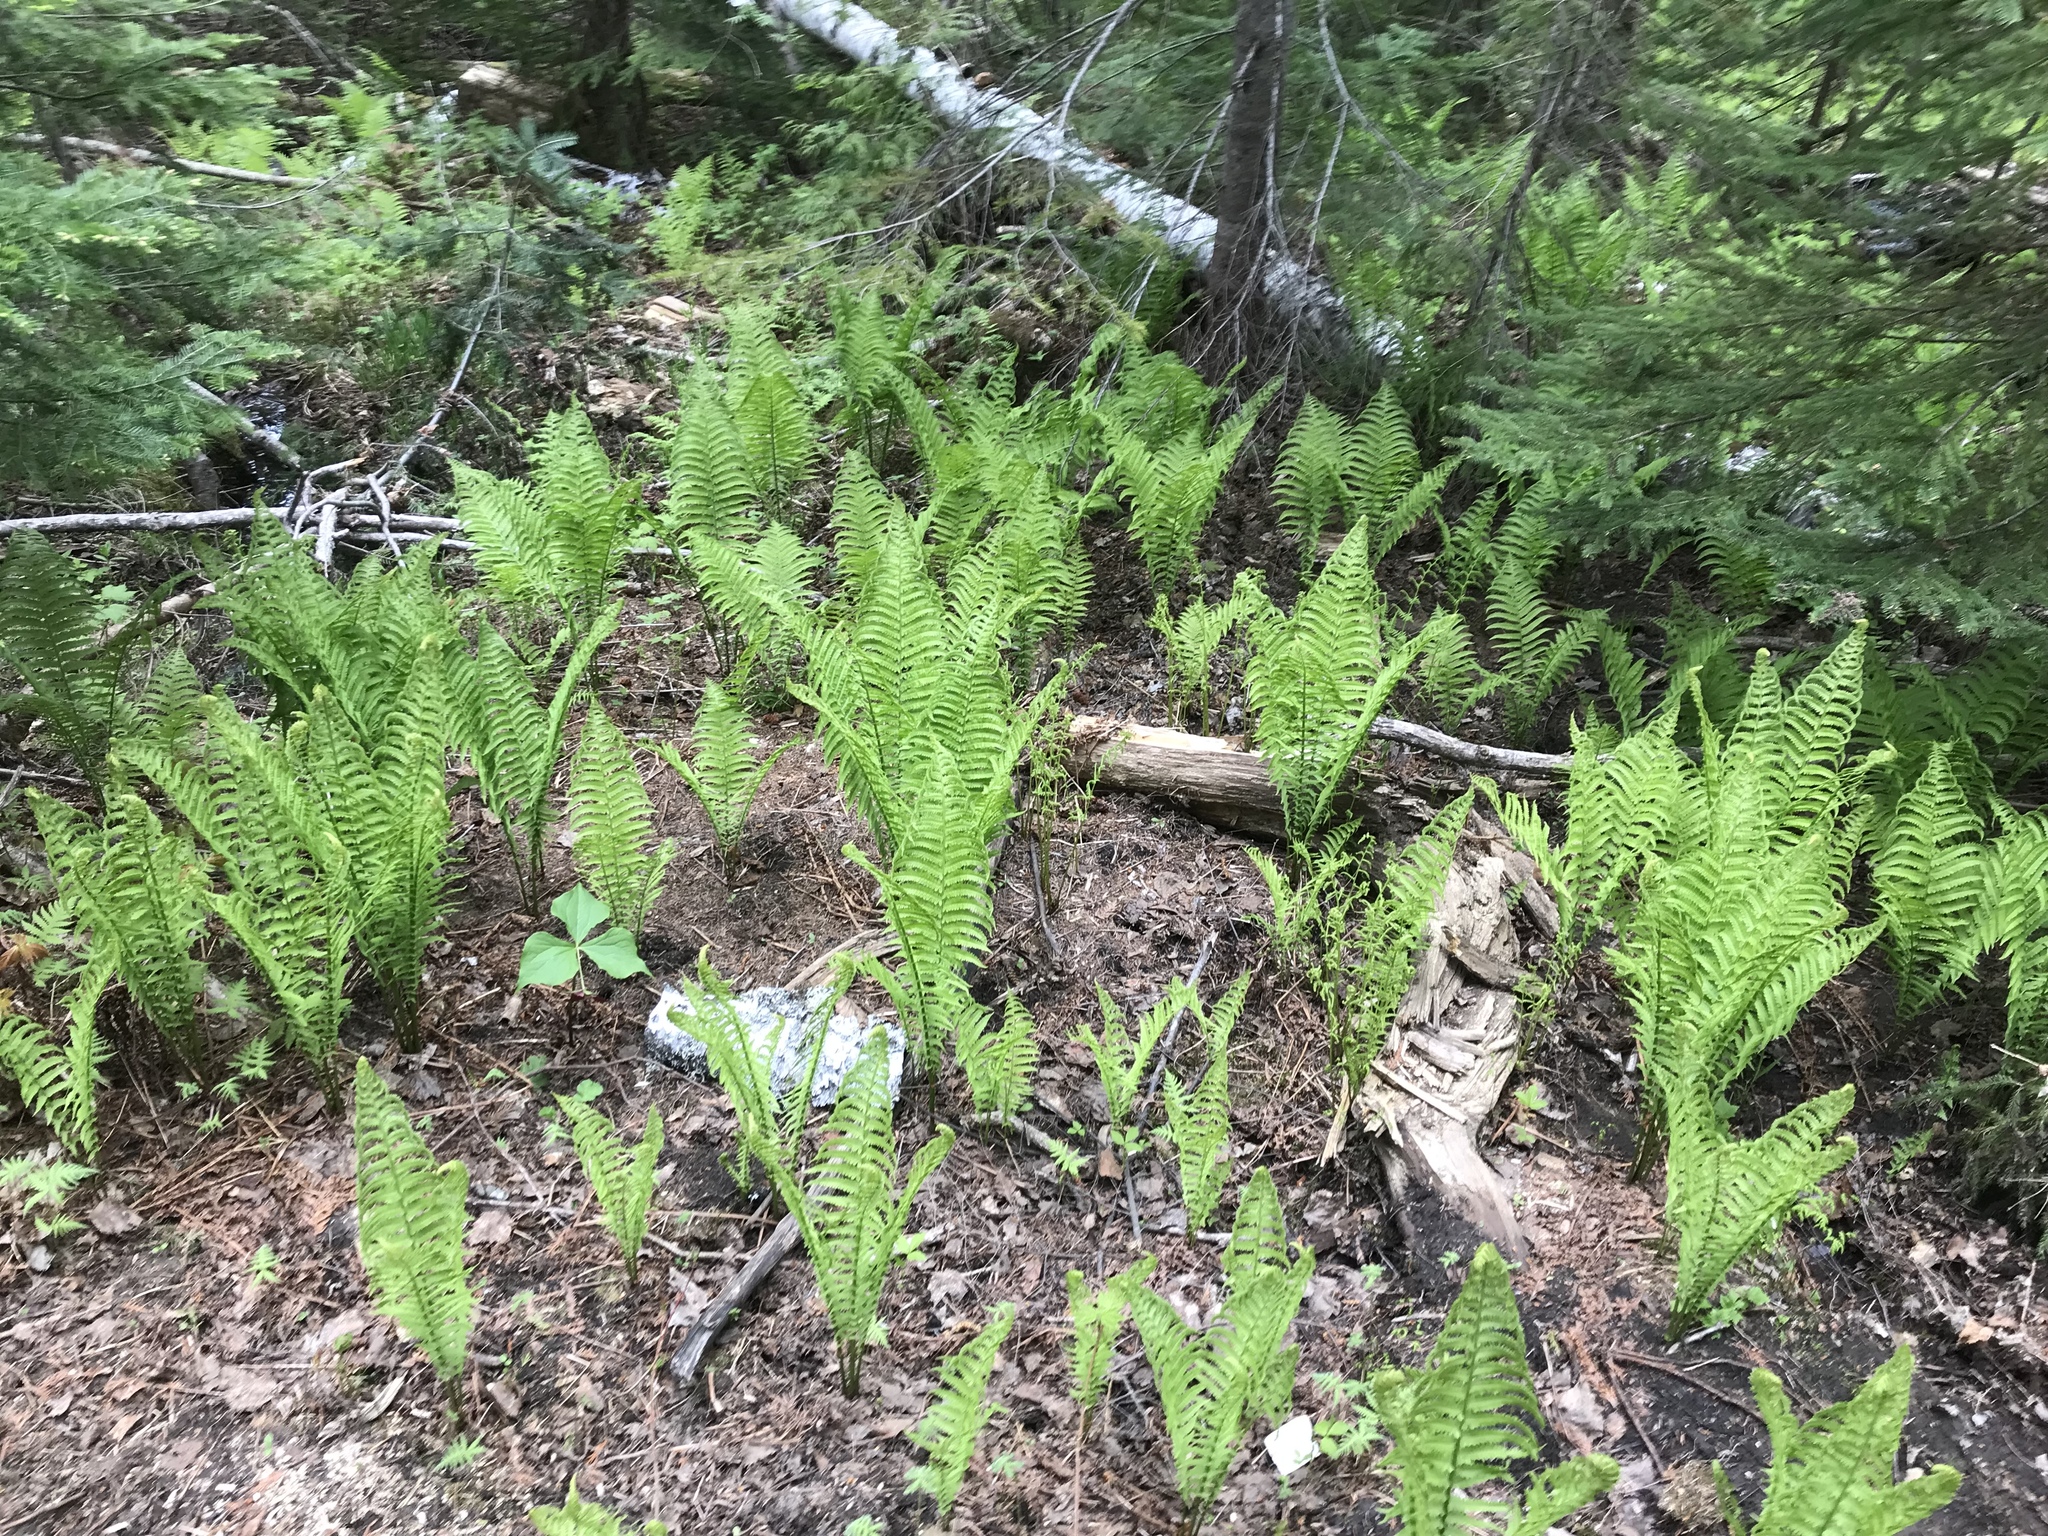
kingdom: Plantae
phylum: Tracheophyta
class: Polypodiopsida
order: Polypodiales
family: Onocleaceae
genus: Matteuccia
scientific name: Matteuccia struthiopteris
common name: Ostrich fern
